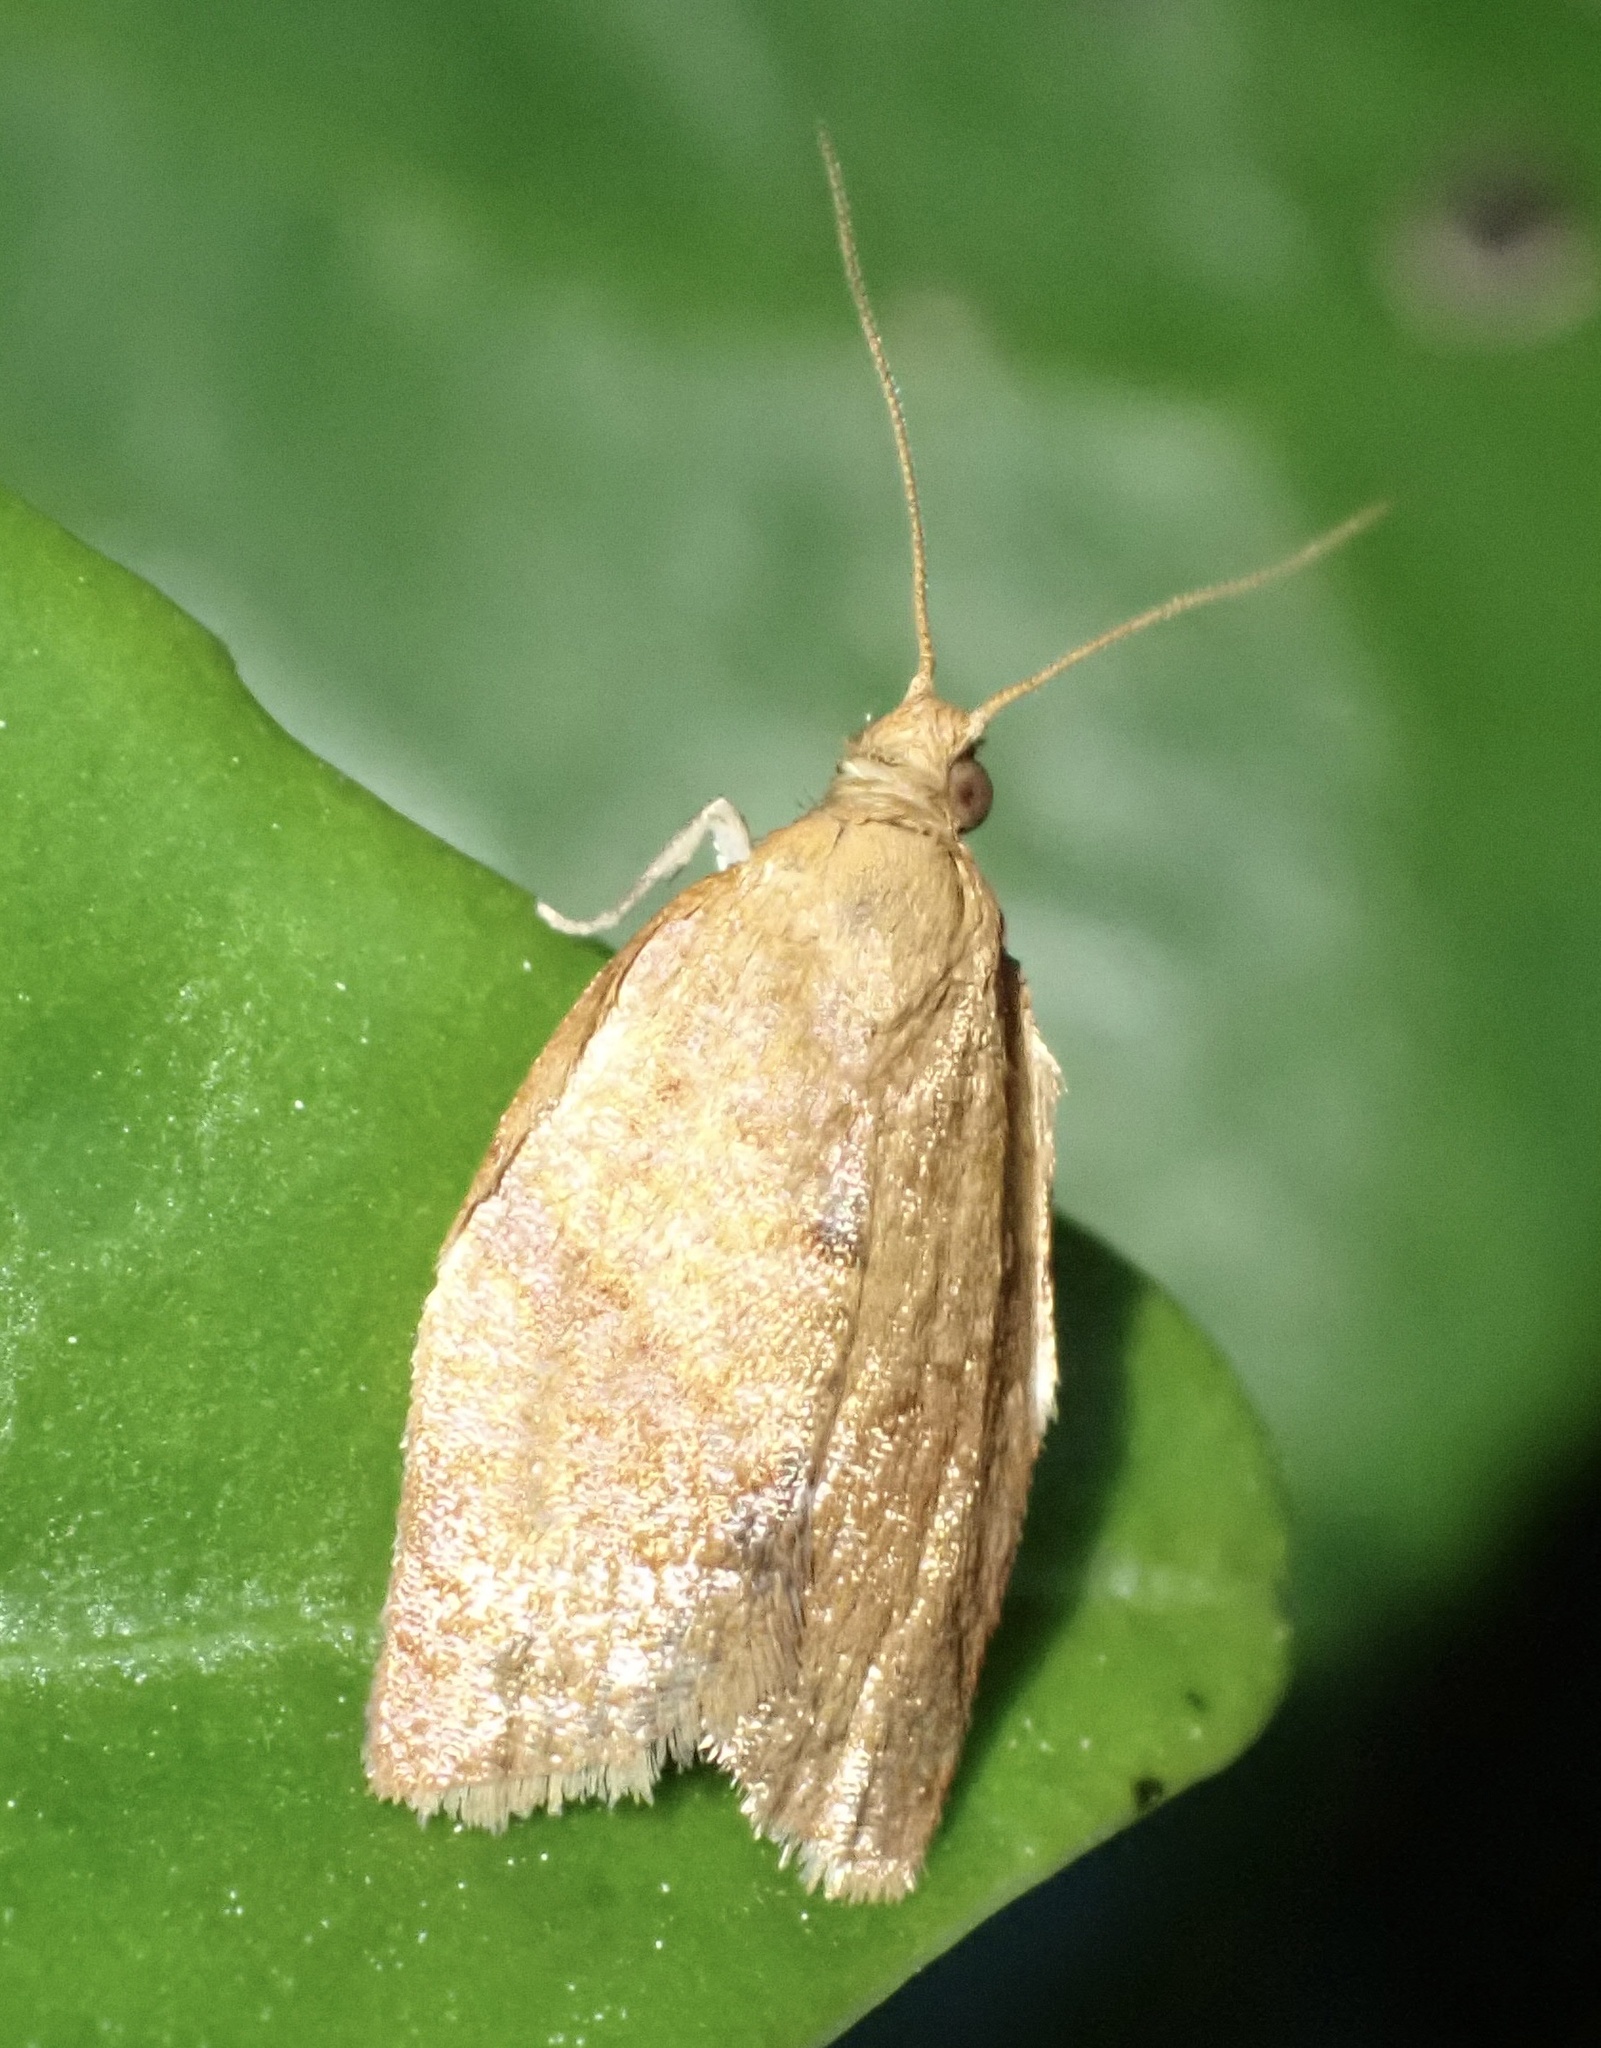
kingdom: Animalia
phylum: Arthropoda
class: Insecta
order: Lepidoptera
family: Tortricidae
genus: Clepsis
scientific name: Clepsis consimilana
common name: Privet tortrix
